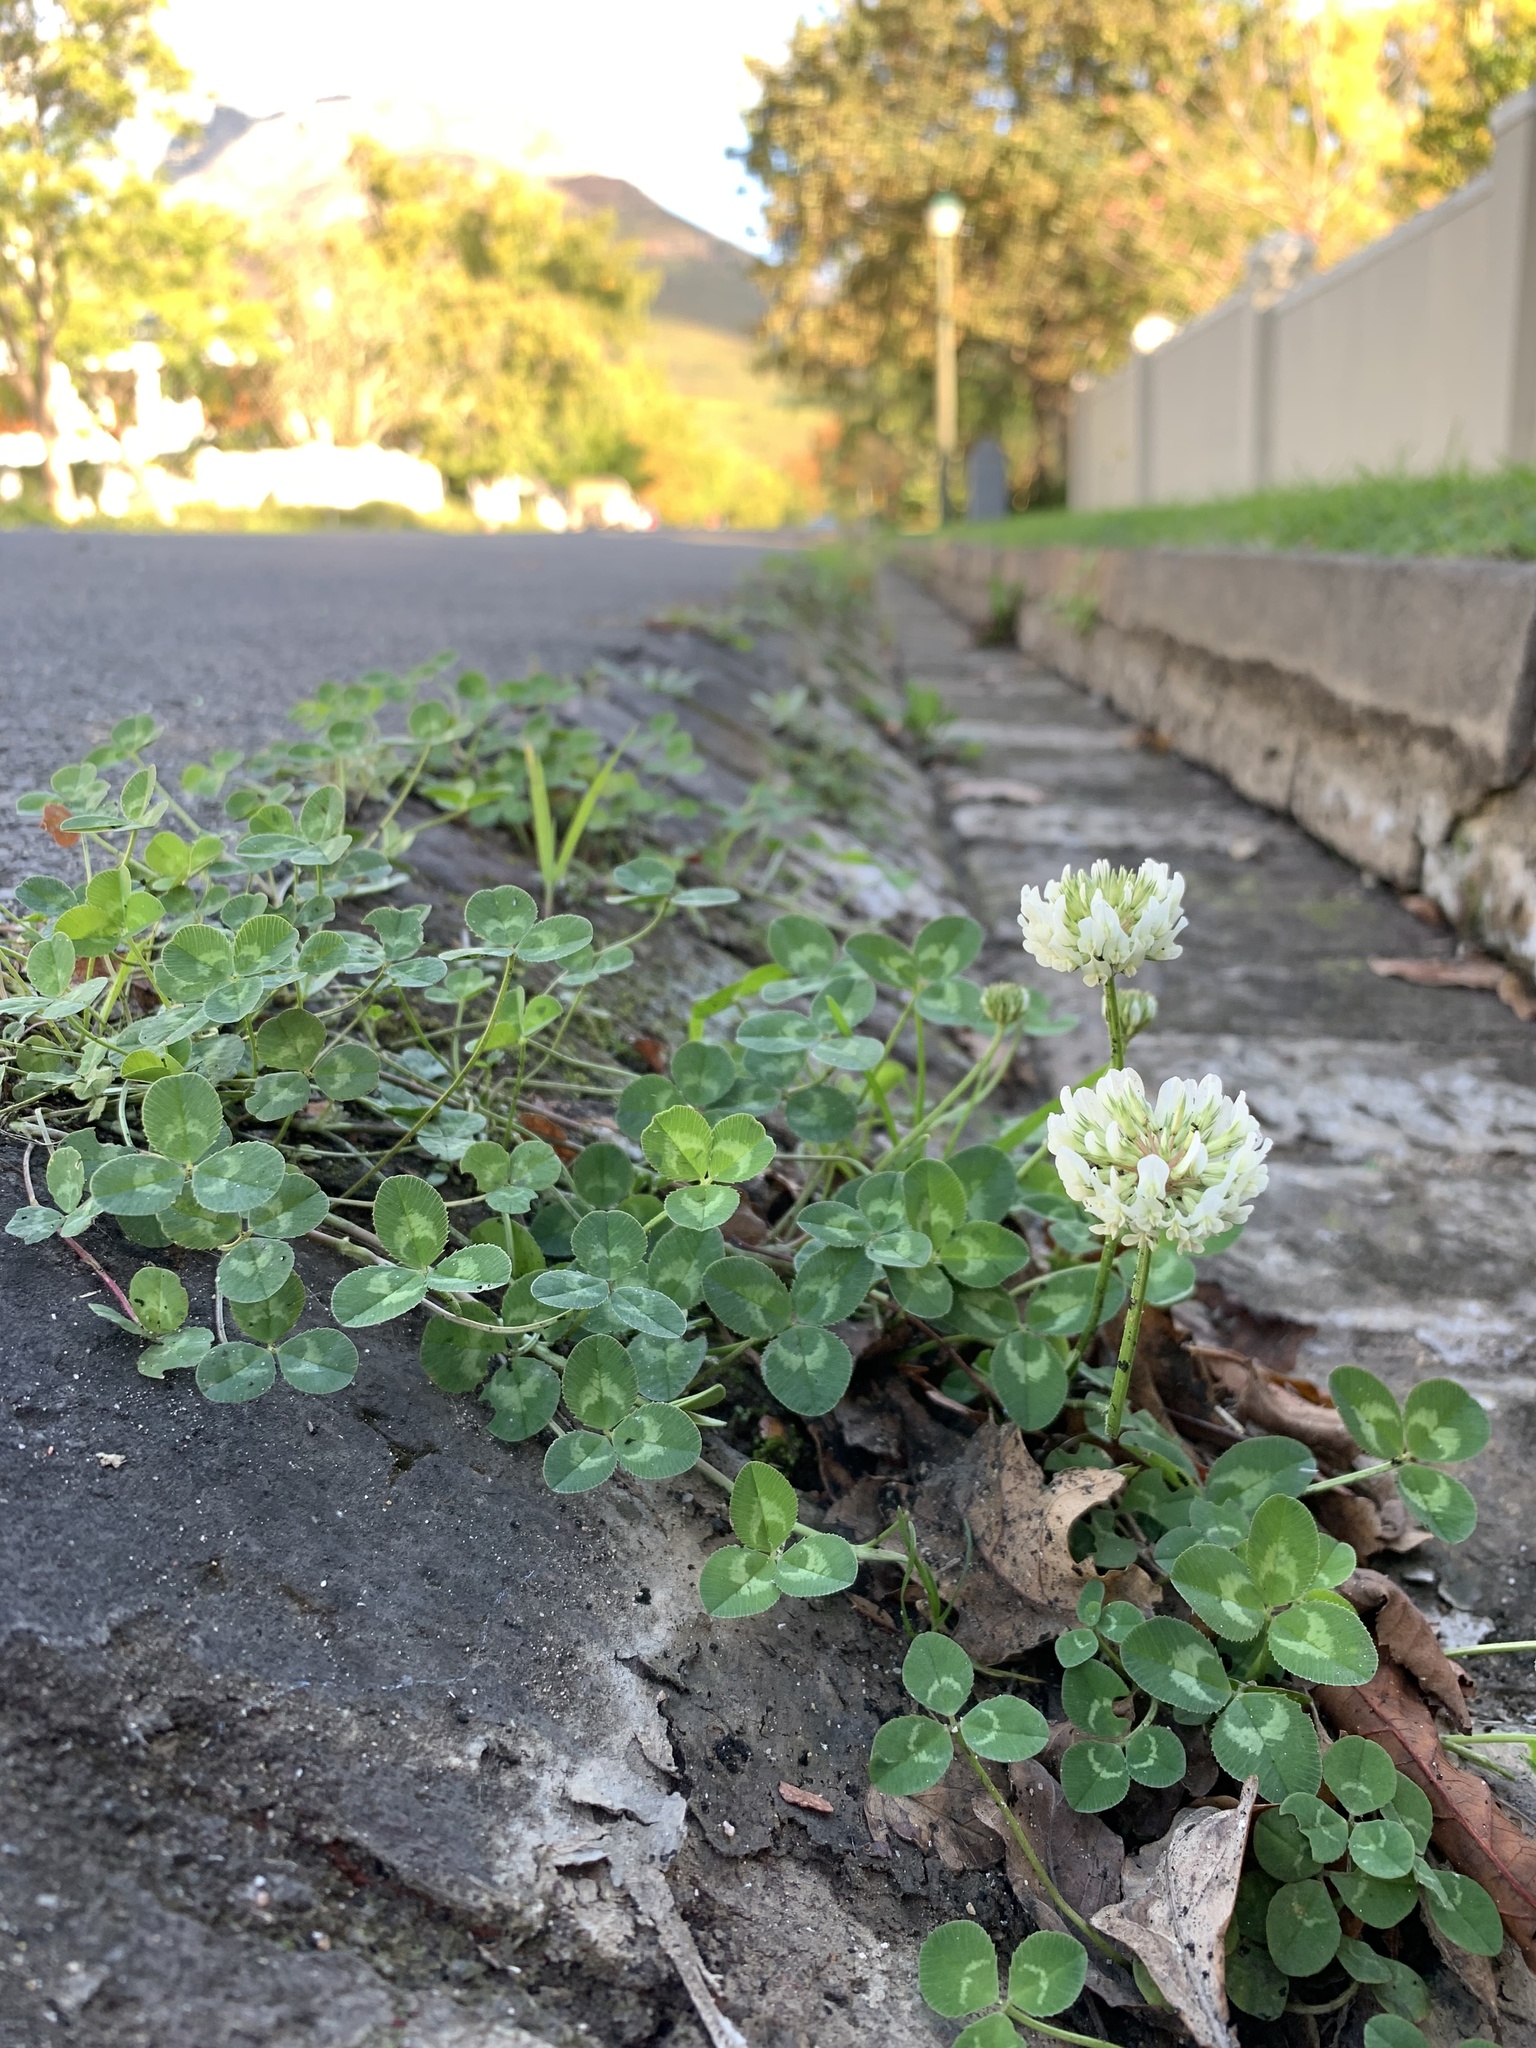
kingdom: Plantae
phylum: Tracheophyta
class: Magnoliopsida
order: Fabales
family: Fabaceae
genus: Trifolium
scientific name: Trifolium repens
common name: White clover
